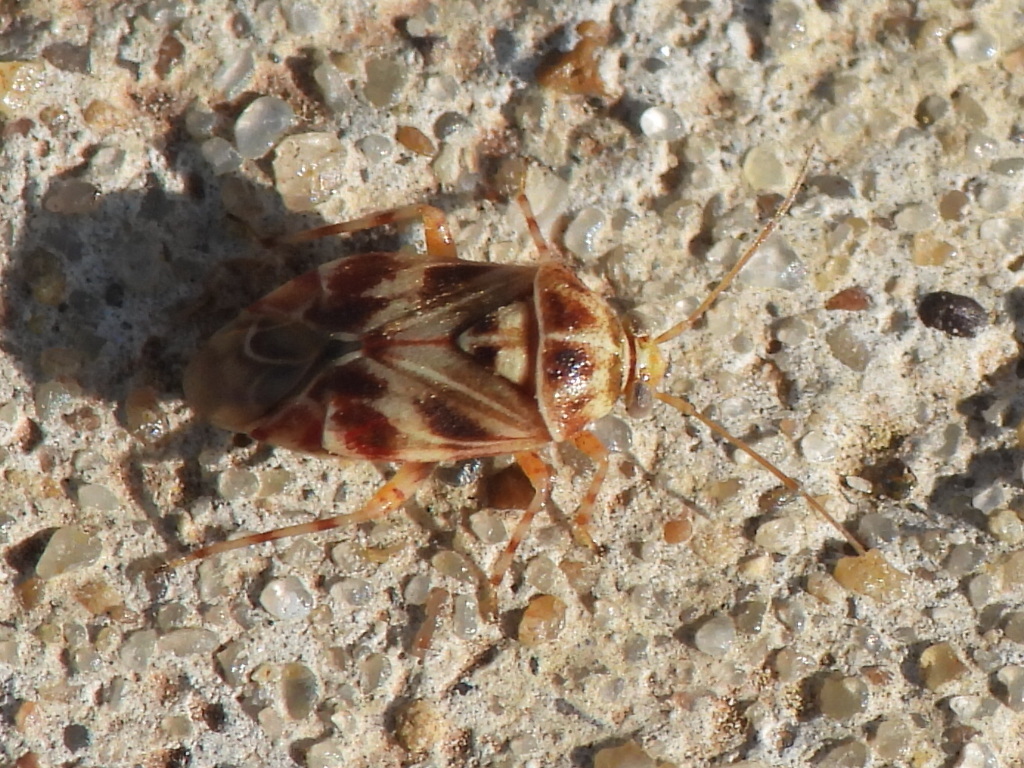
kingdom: Animalia
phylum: Arthropoda
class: Insecta
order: Hemiptera
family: Miridae
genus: Tropidosteptes
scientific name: Tropidosteptes quercicola
